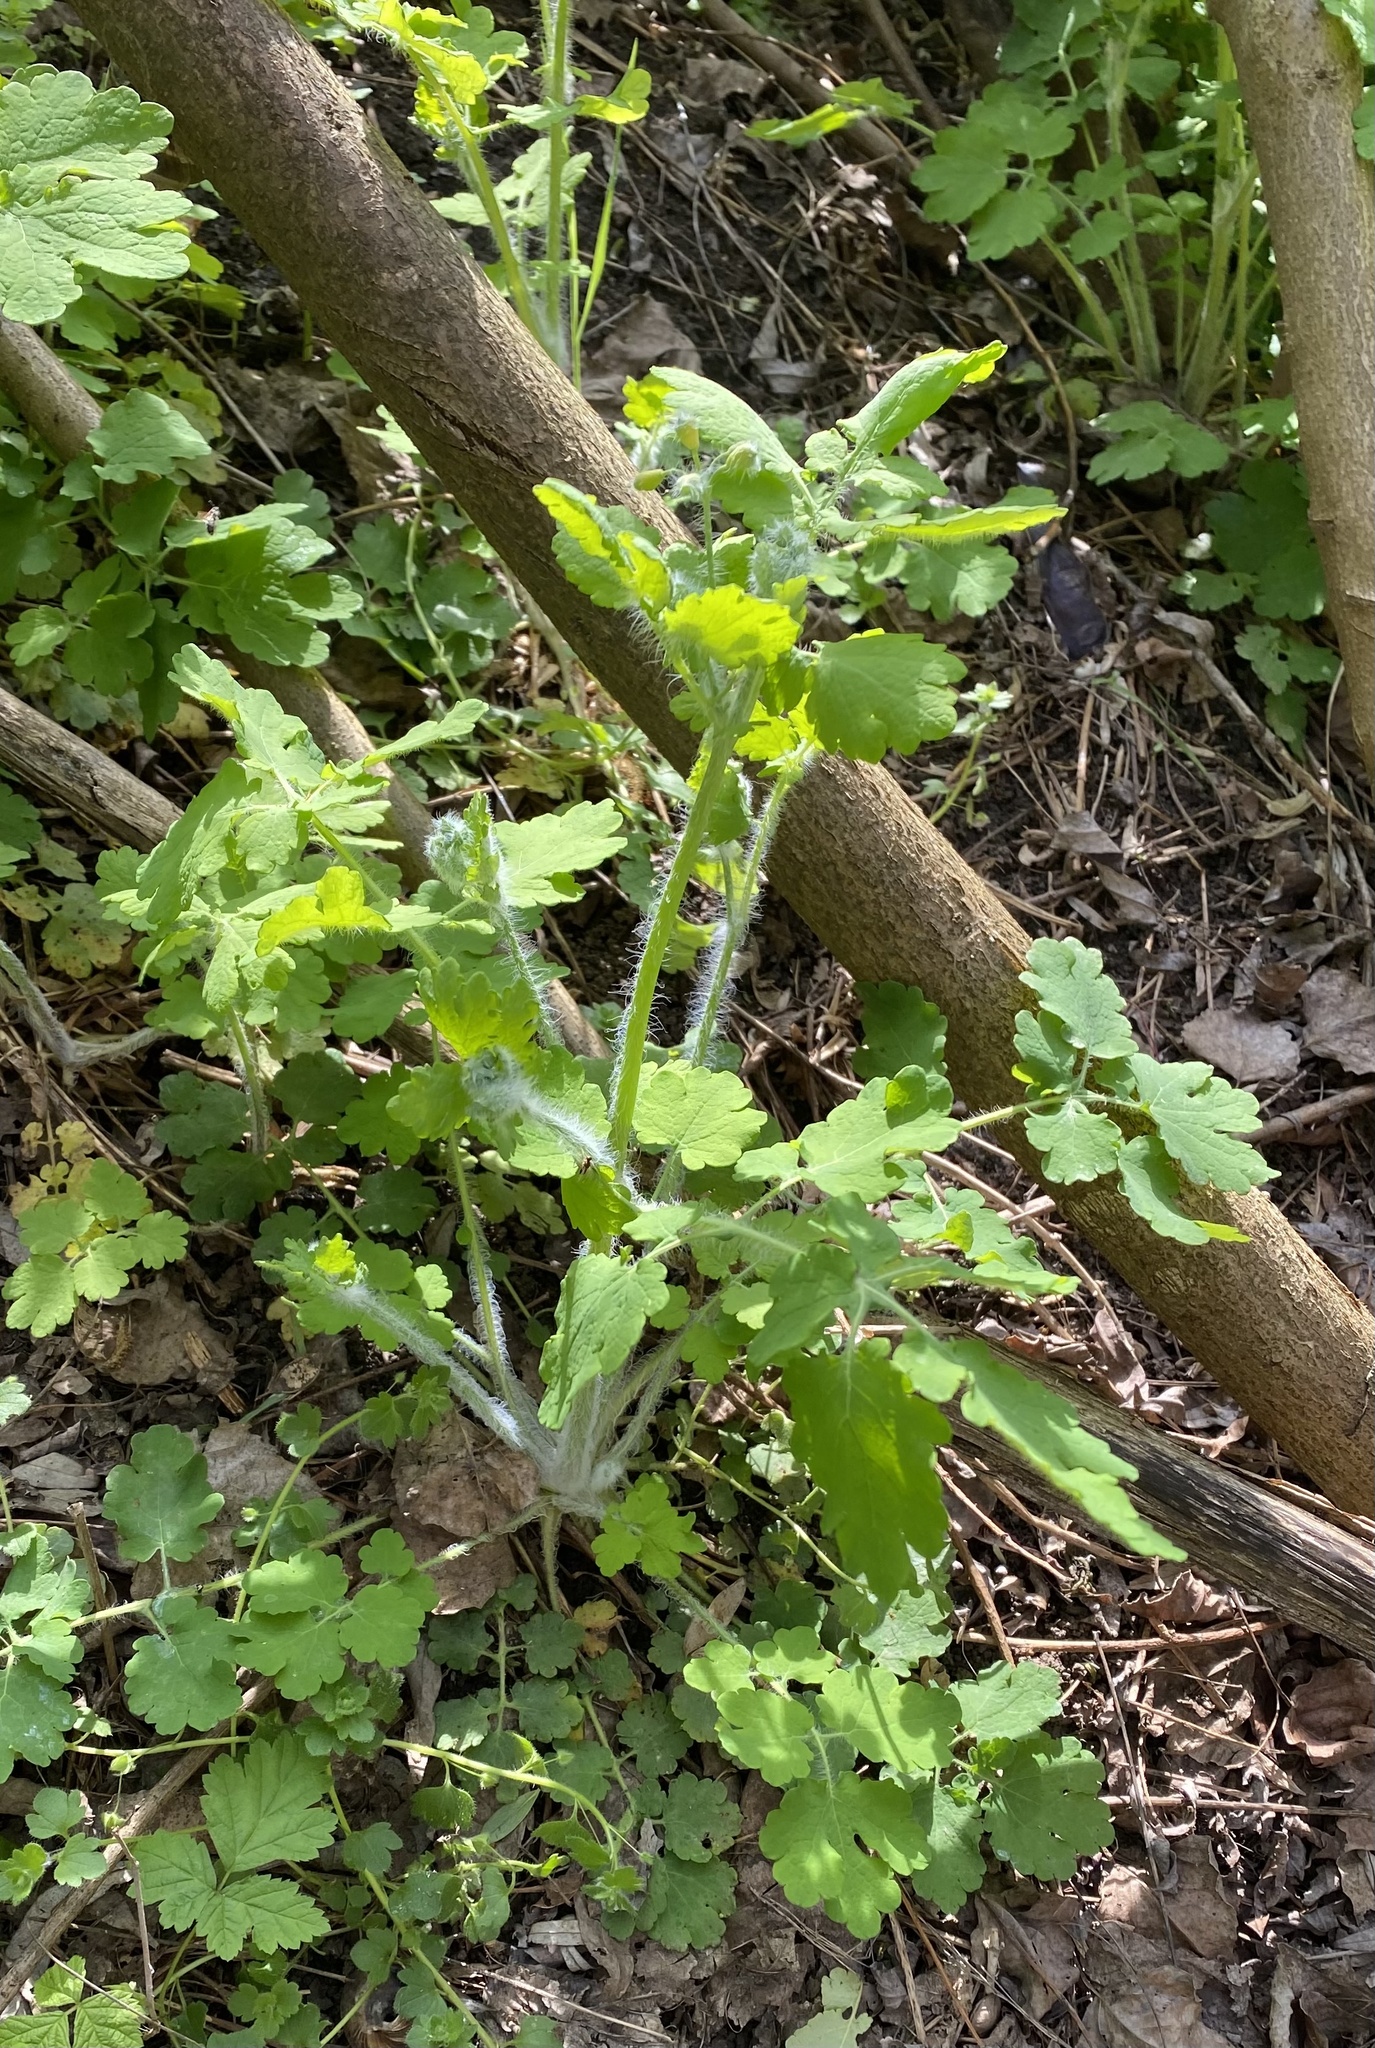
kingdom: Plantae
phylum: Tracheophyta
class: Magnoliopsida
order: Ranunculales
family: Papaveraceae
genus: Chelidonium
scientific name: Chelidonium majus
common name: Greater celandine
